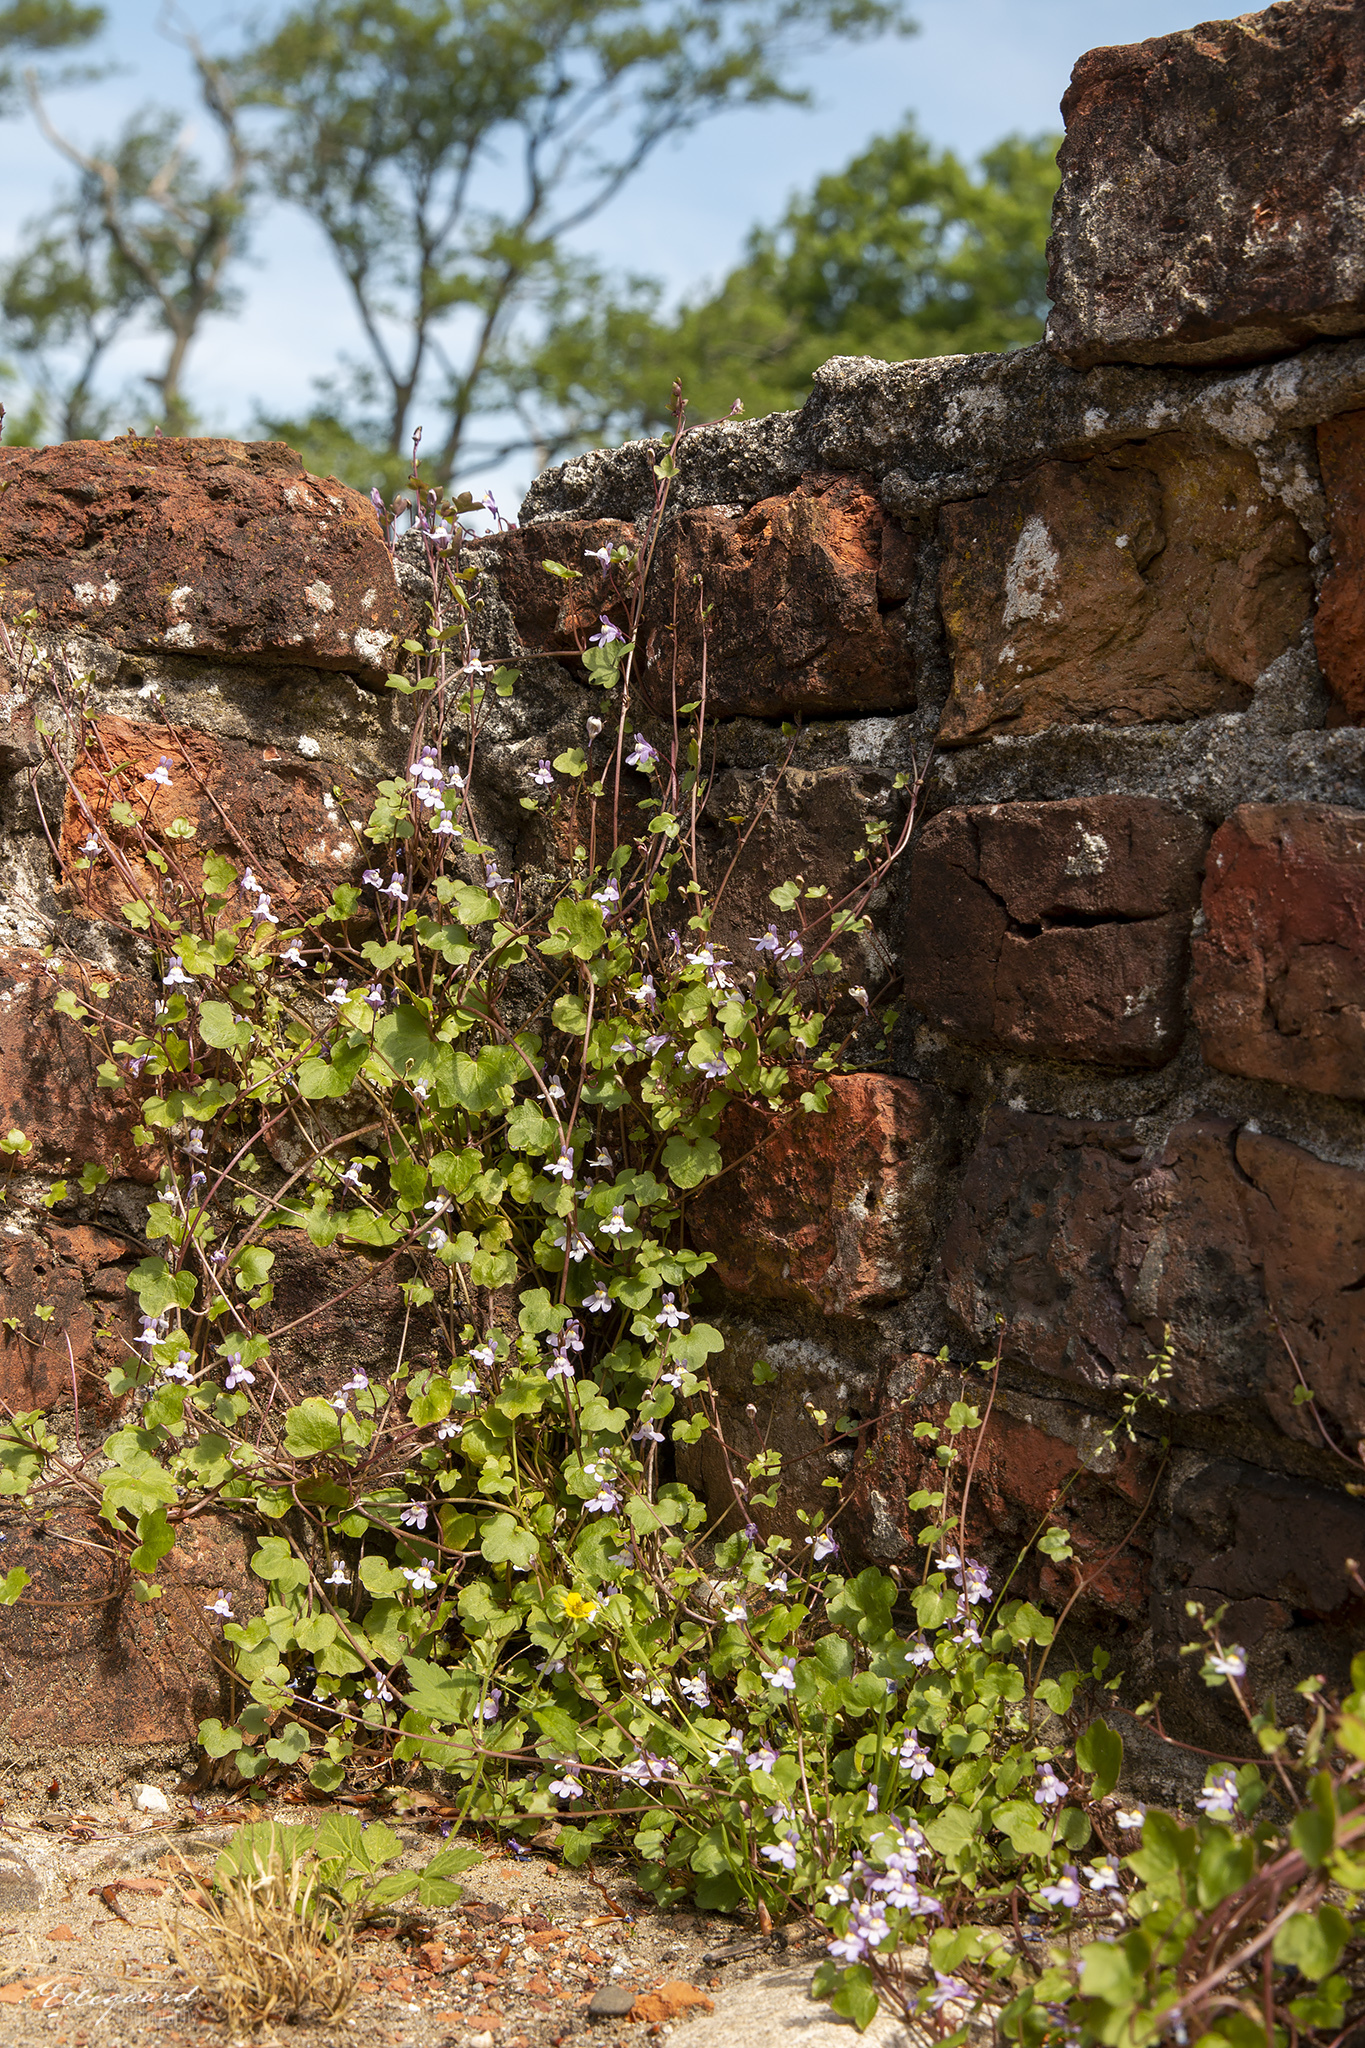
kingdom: Plantae
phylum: Tracheophyta
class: Magnoliopsida
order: Lamiales
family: Plantaginaceae
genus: Cymbalaria
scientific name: Cymbalaria muralis
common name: Ivy-leaved toadflax
